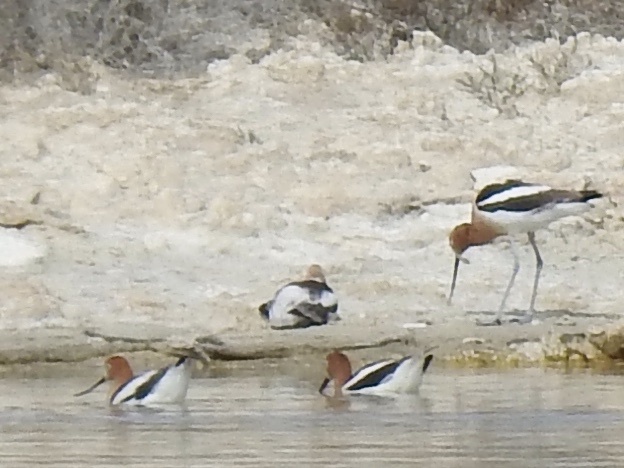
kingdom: Animalia
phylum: Chordata
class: Aves
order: Charadriiformes
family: Recurvirostridae
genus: Recurvirostra
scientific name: Recurvirostra americana
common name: American avocet
